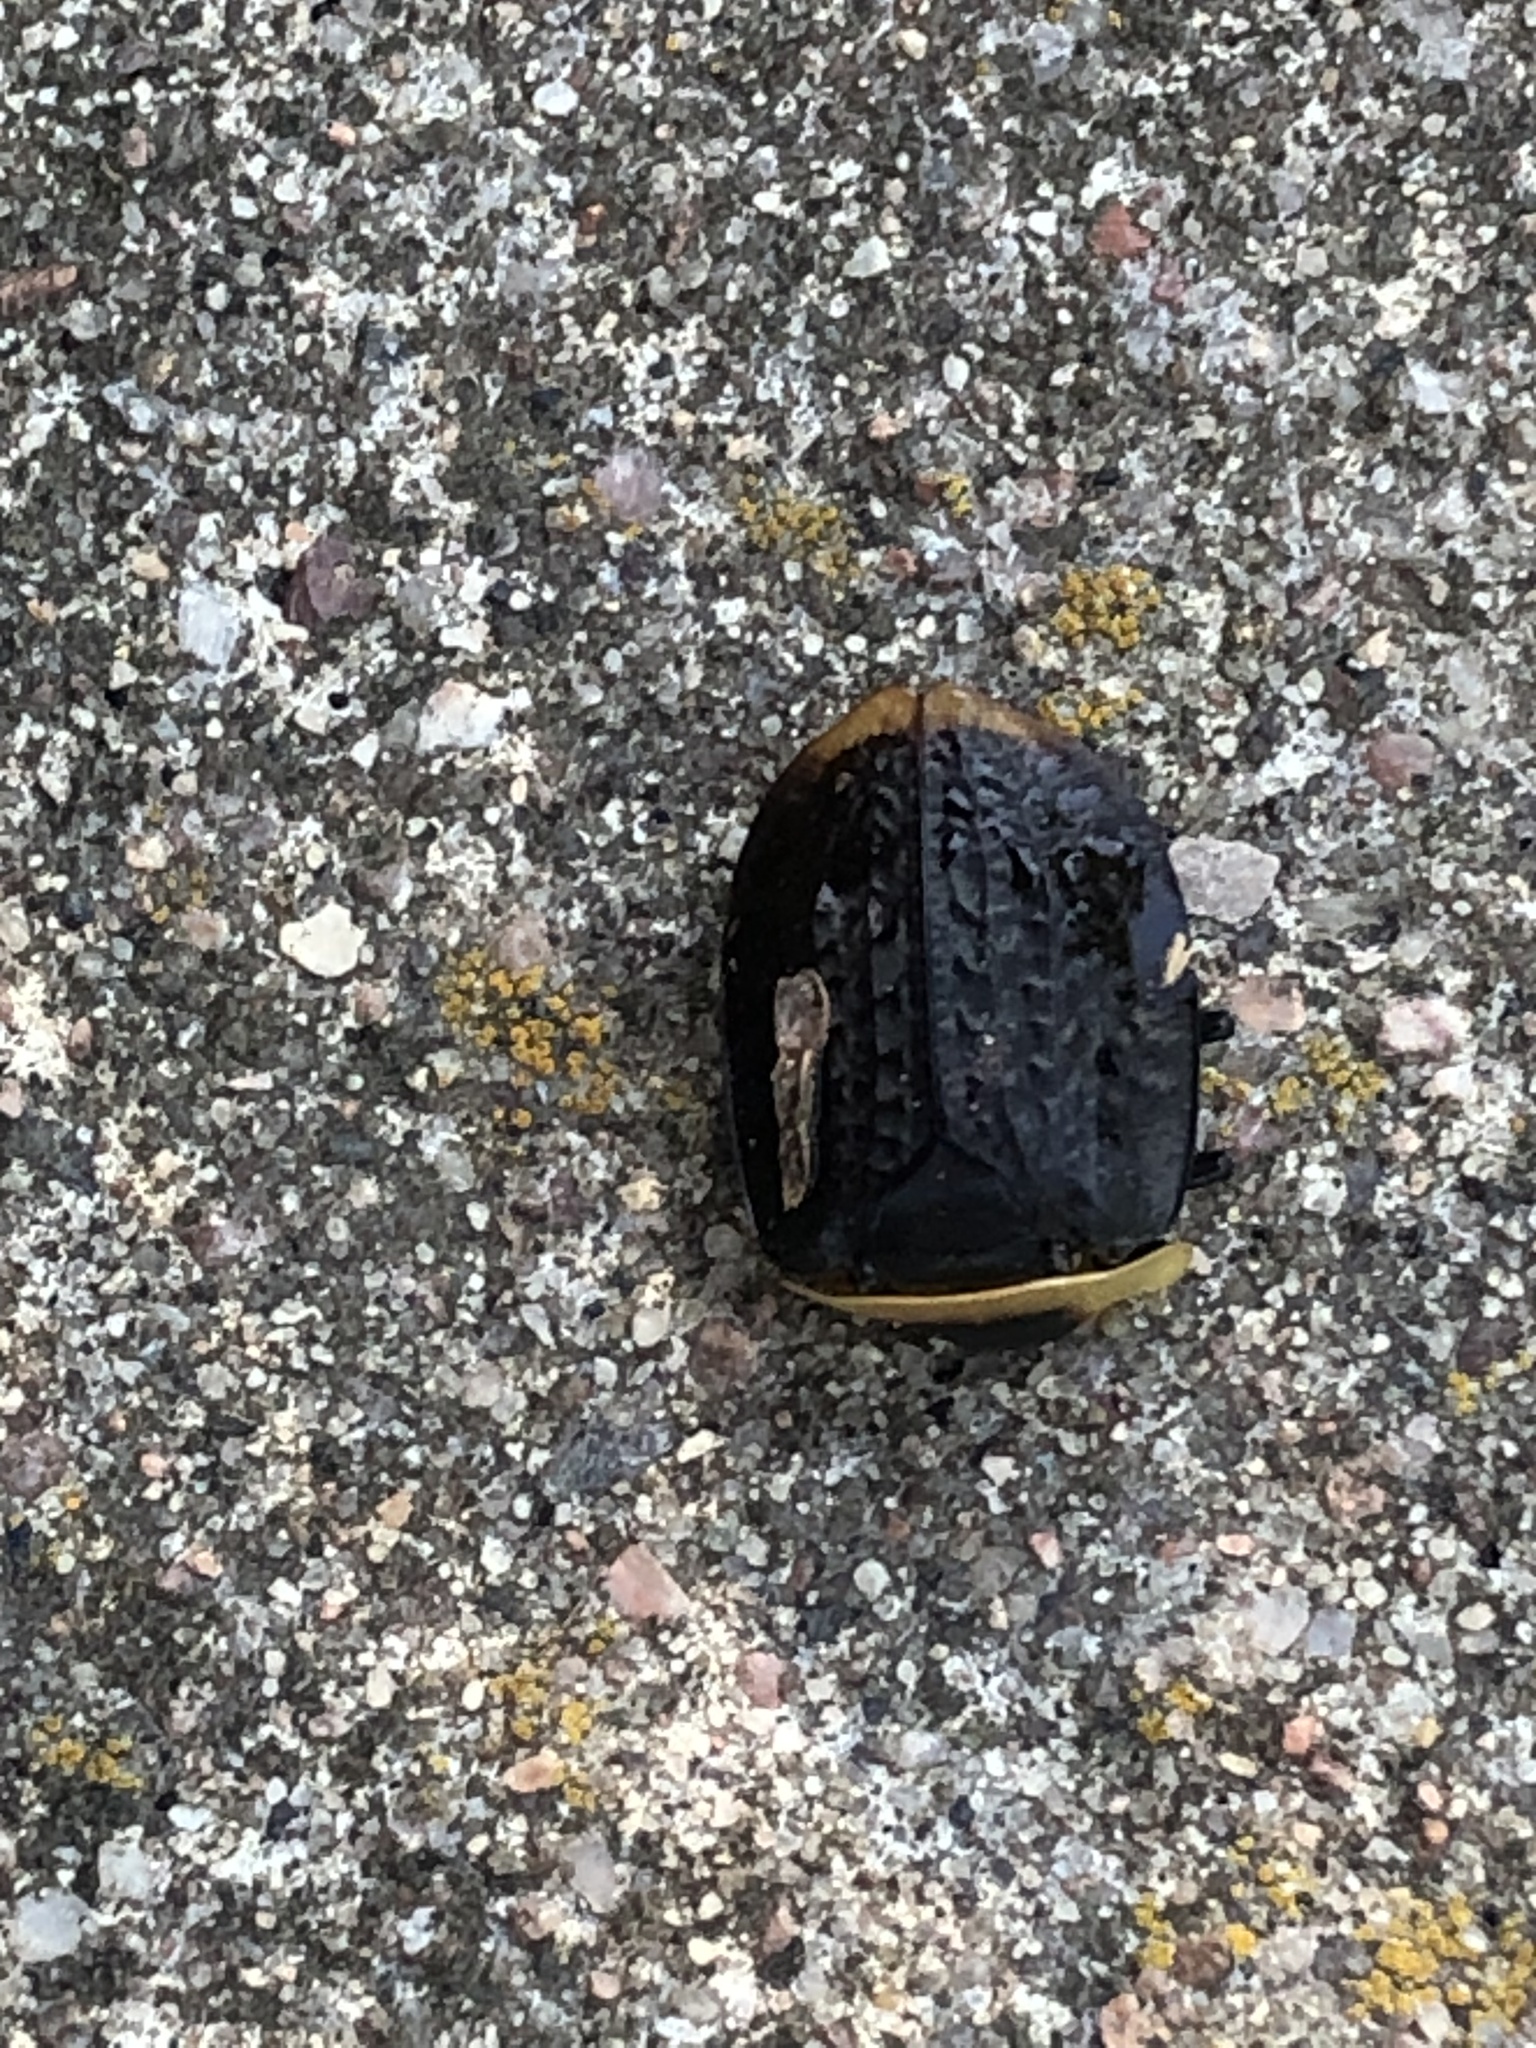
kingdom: Animalia
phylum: Arthropoda
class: Insecta
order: Coleoptera
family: Staphylinidae
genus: Necrophila
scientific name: Necrophila americana
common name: American carrion beetle
